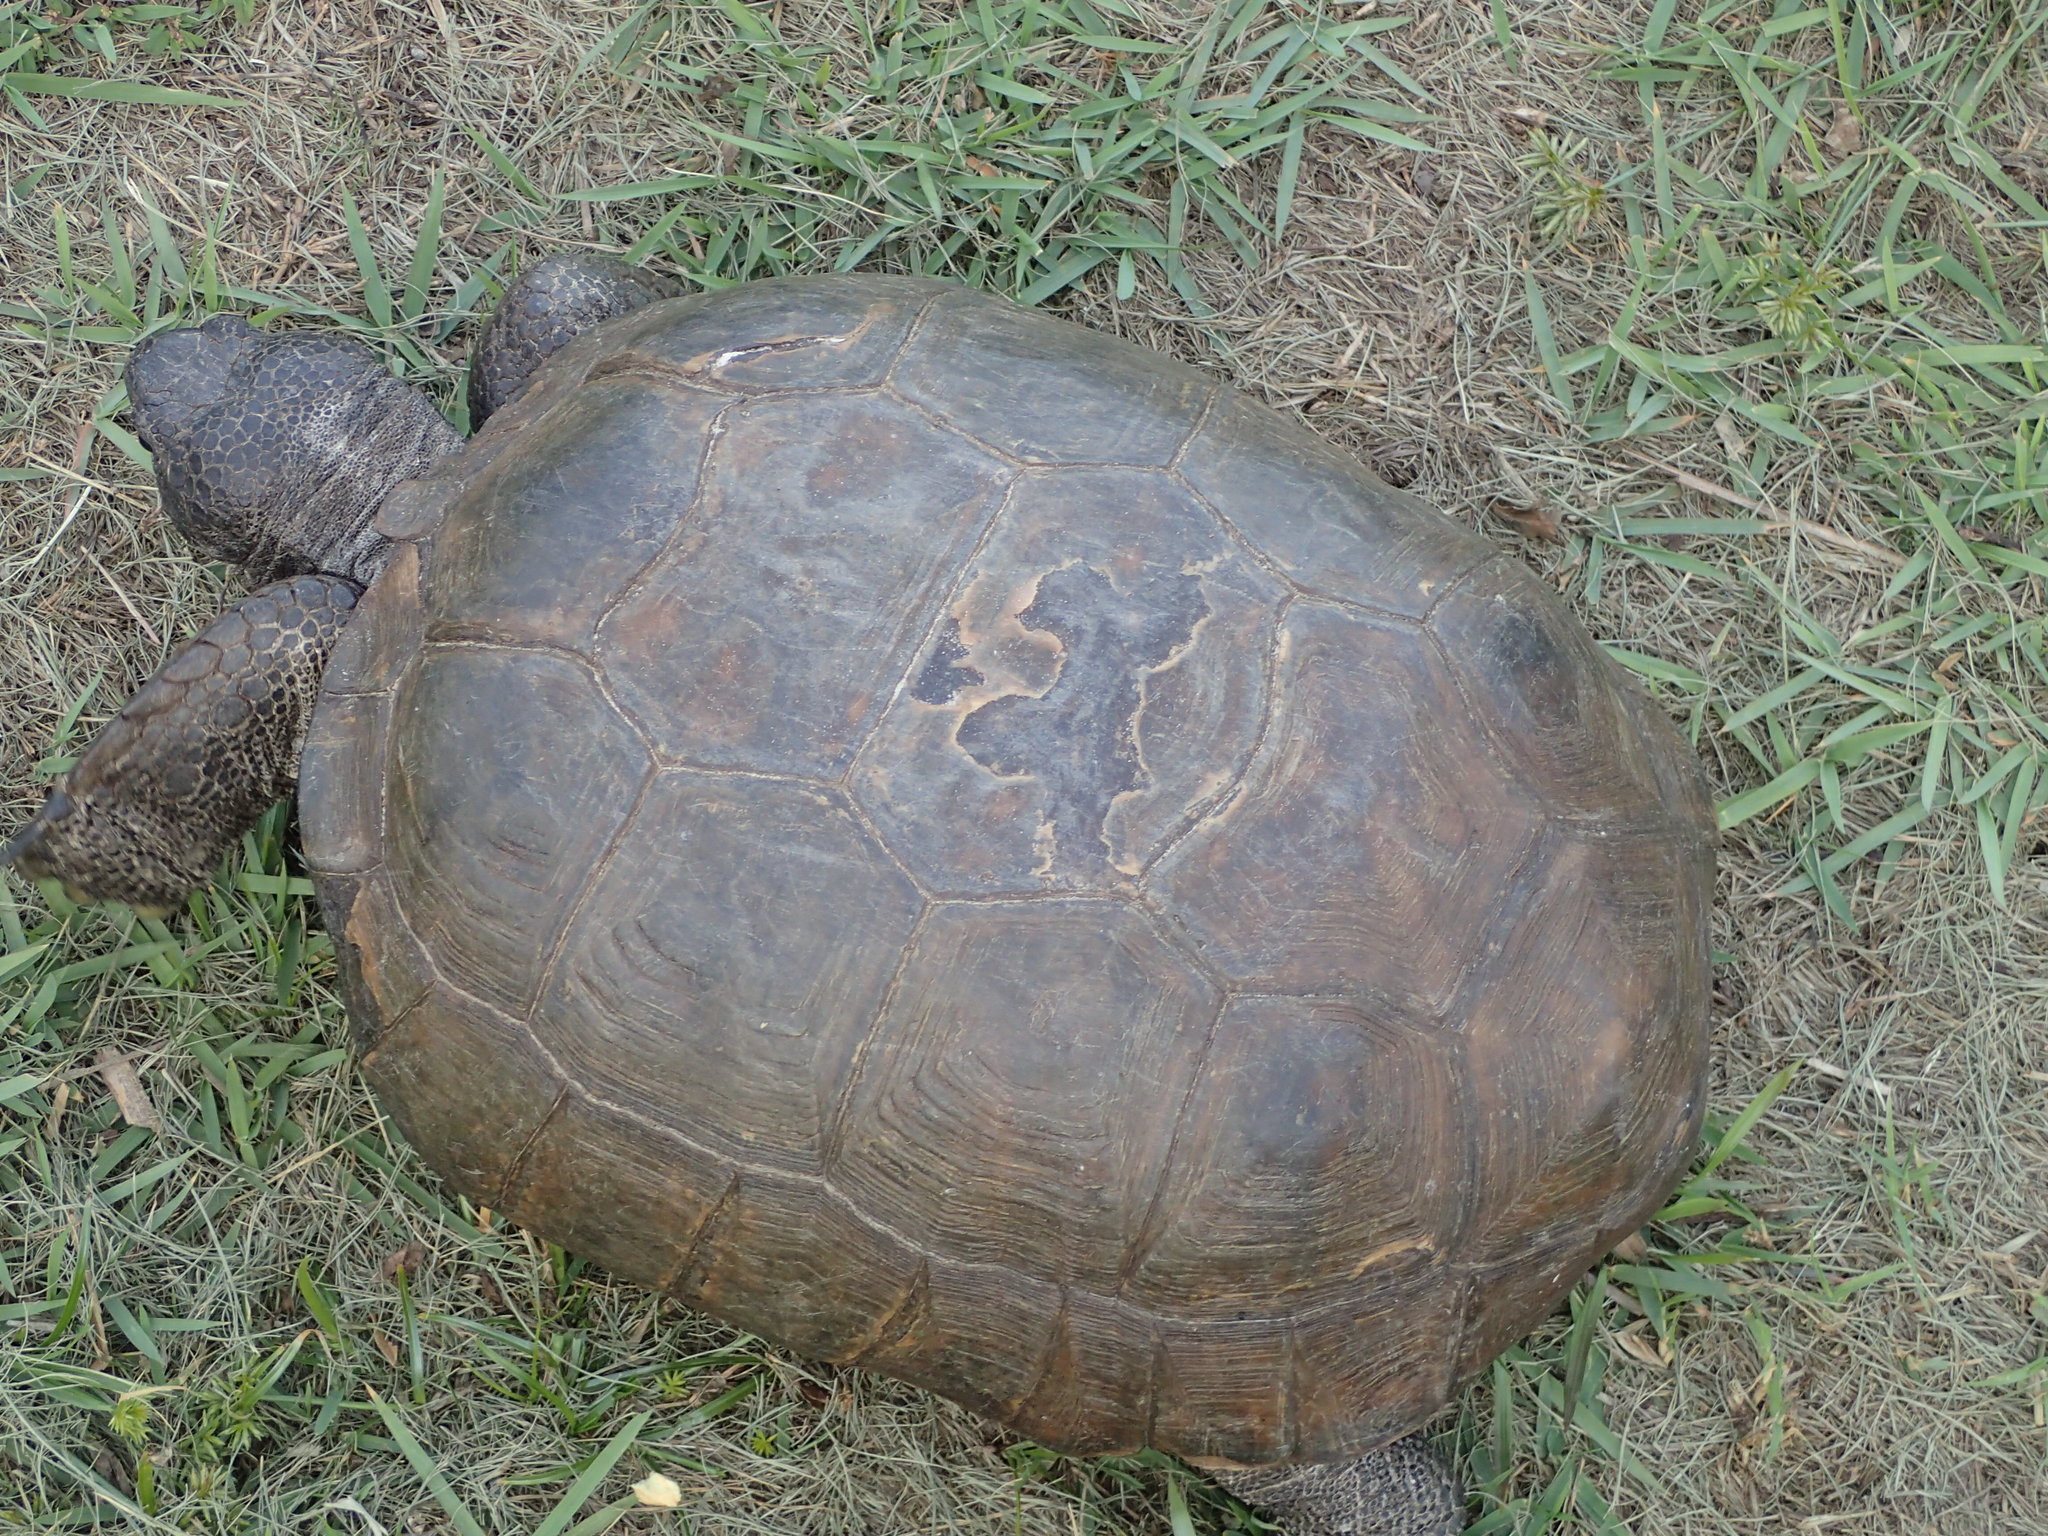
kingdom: Animalia
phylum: Chordata
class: Testudines
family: Testudinidae
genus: Gopherus
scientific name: Gopherus polyphemus
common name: Florida gopher tortoise
